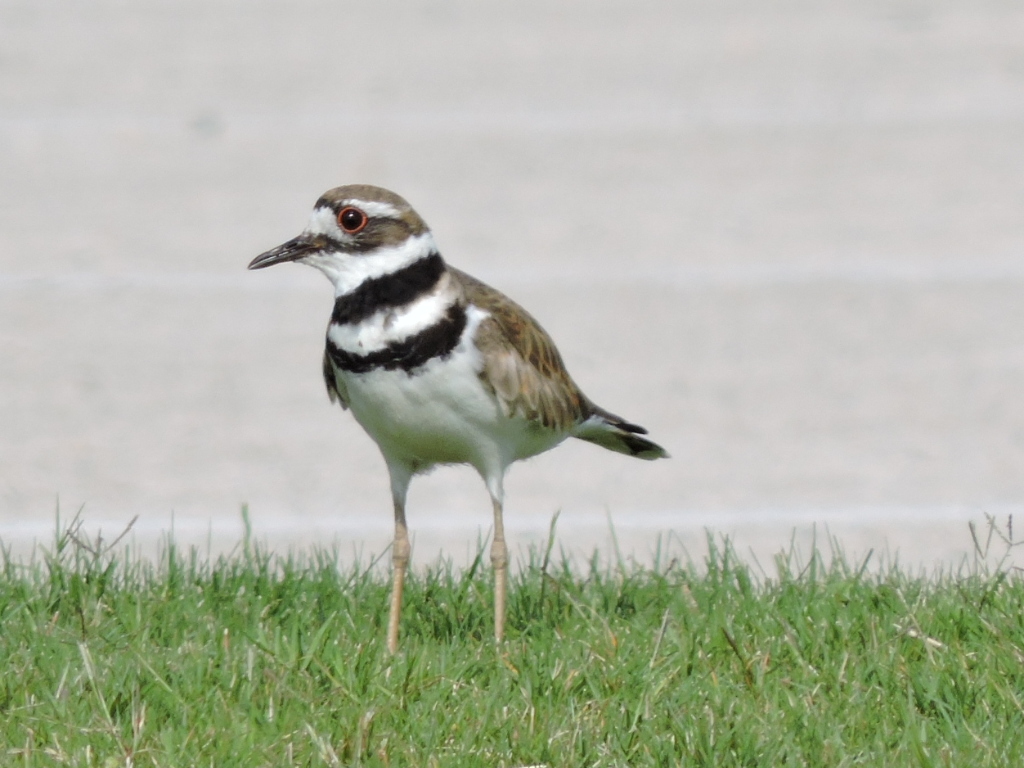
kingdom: Animalia
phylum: Chordata
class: Aves
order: Charadriiformes
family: Charadriidae
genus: Charadrius
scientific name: Charadrius vociferus
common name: Killdeer
